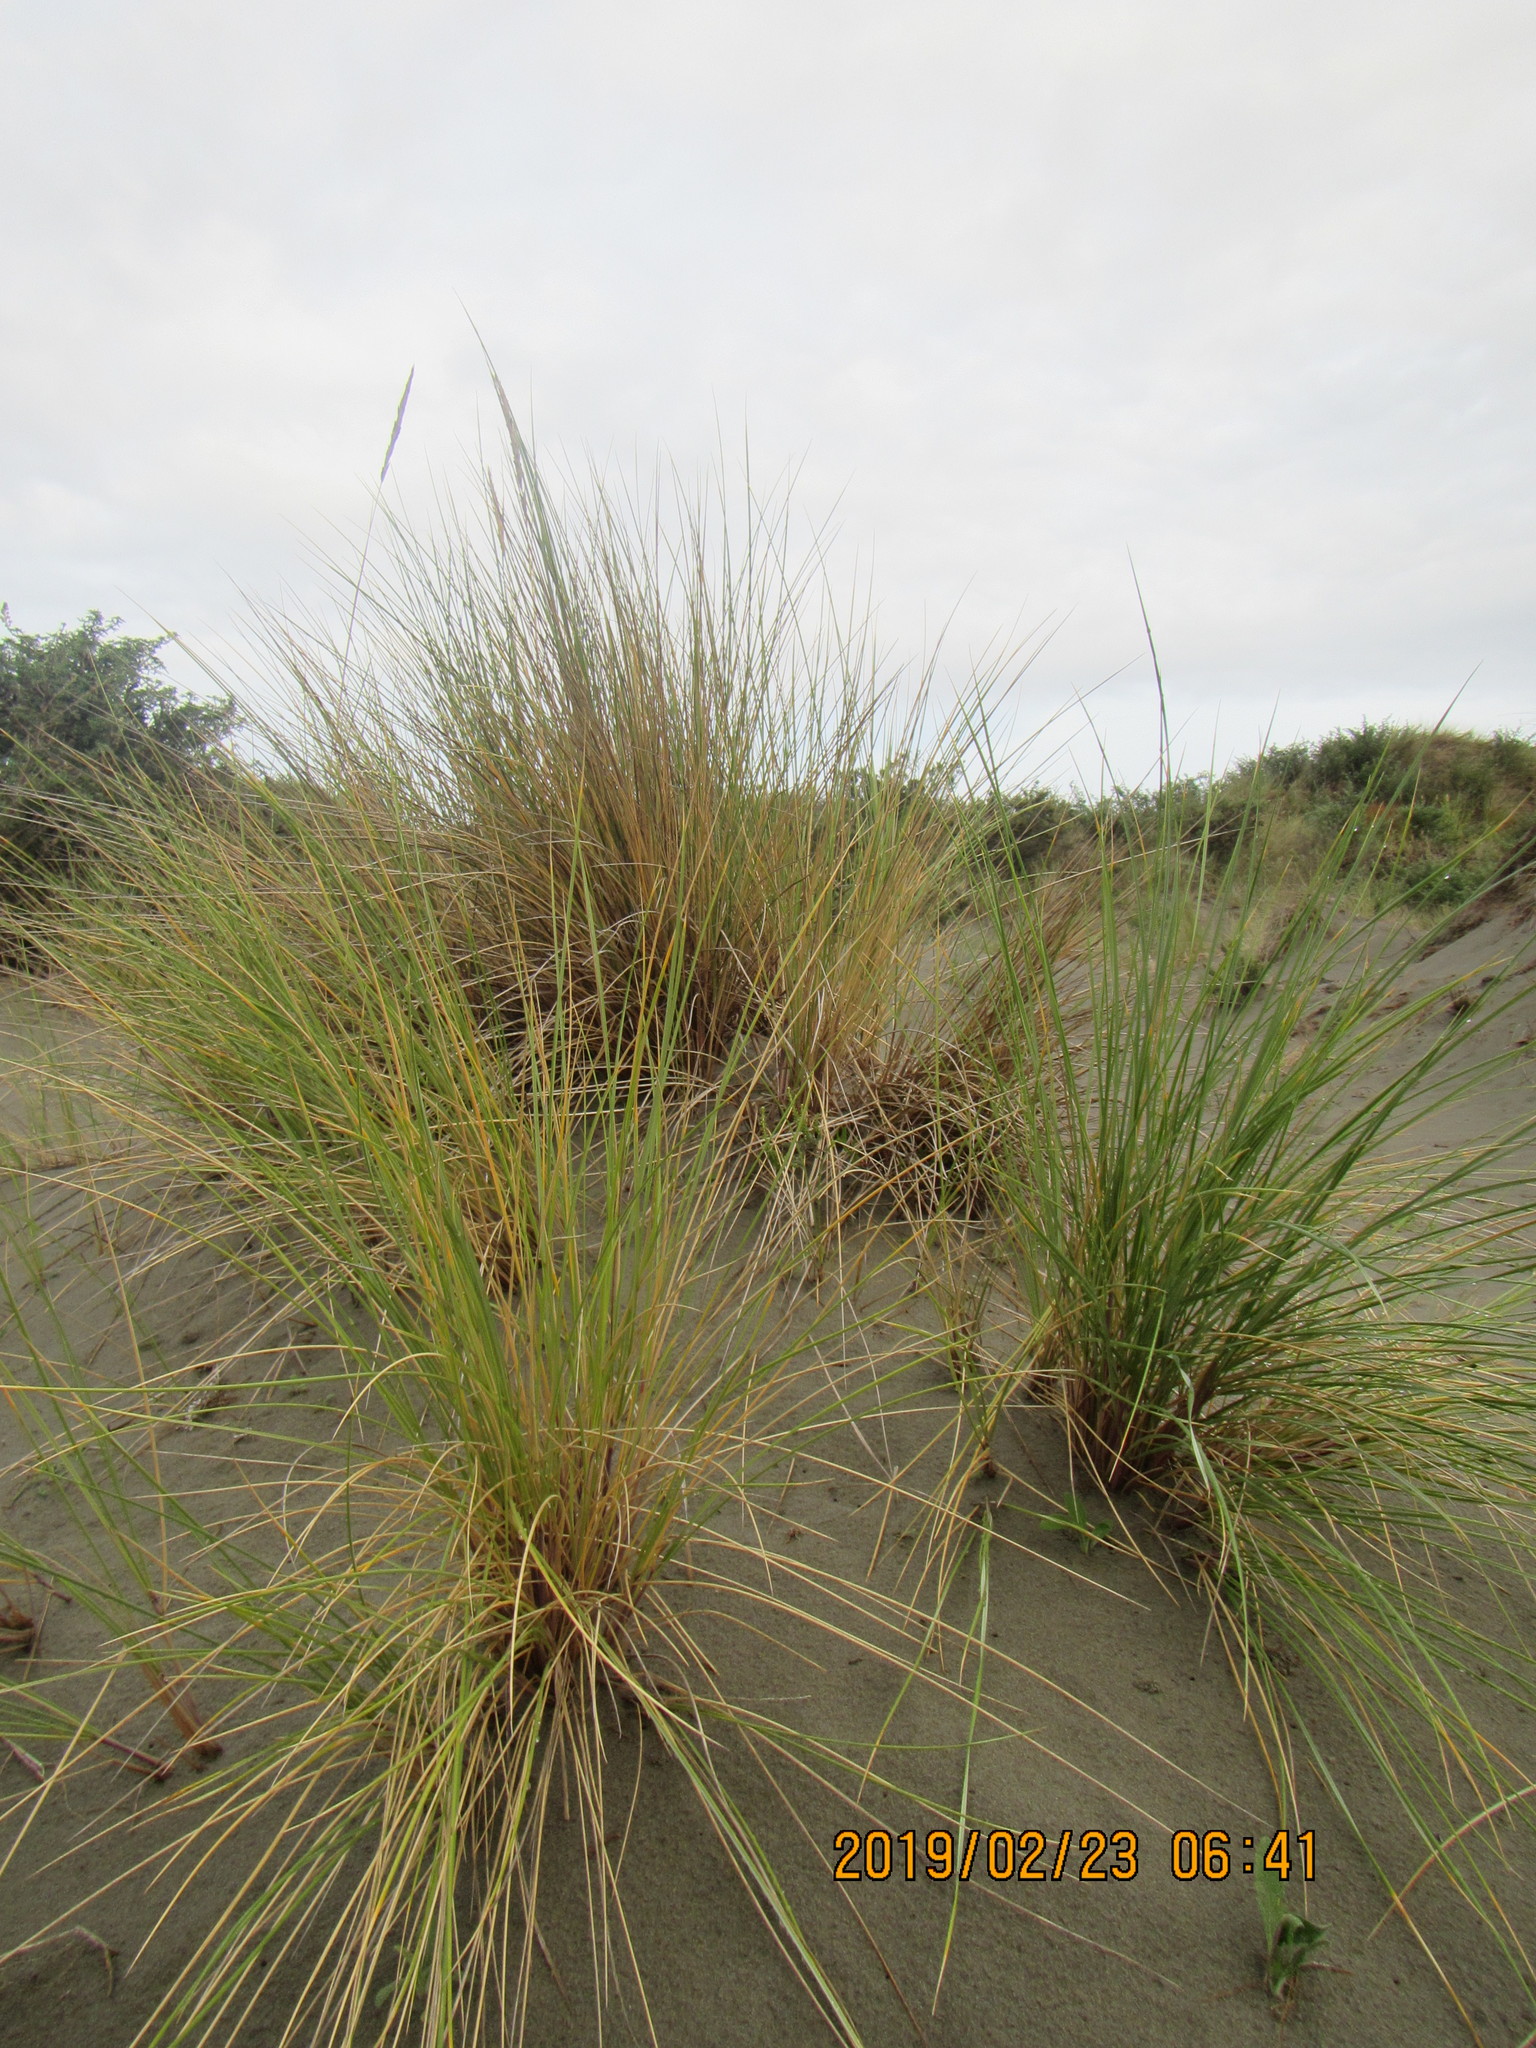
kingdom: Plantae
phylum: Tracheophyta
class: Liliopsida
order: Poales
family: Poaceae
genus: Calamagrostis
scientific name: Calamagrostis arenaria
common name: European beachgrass
